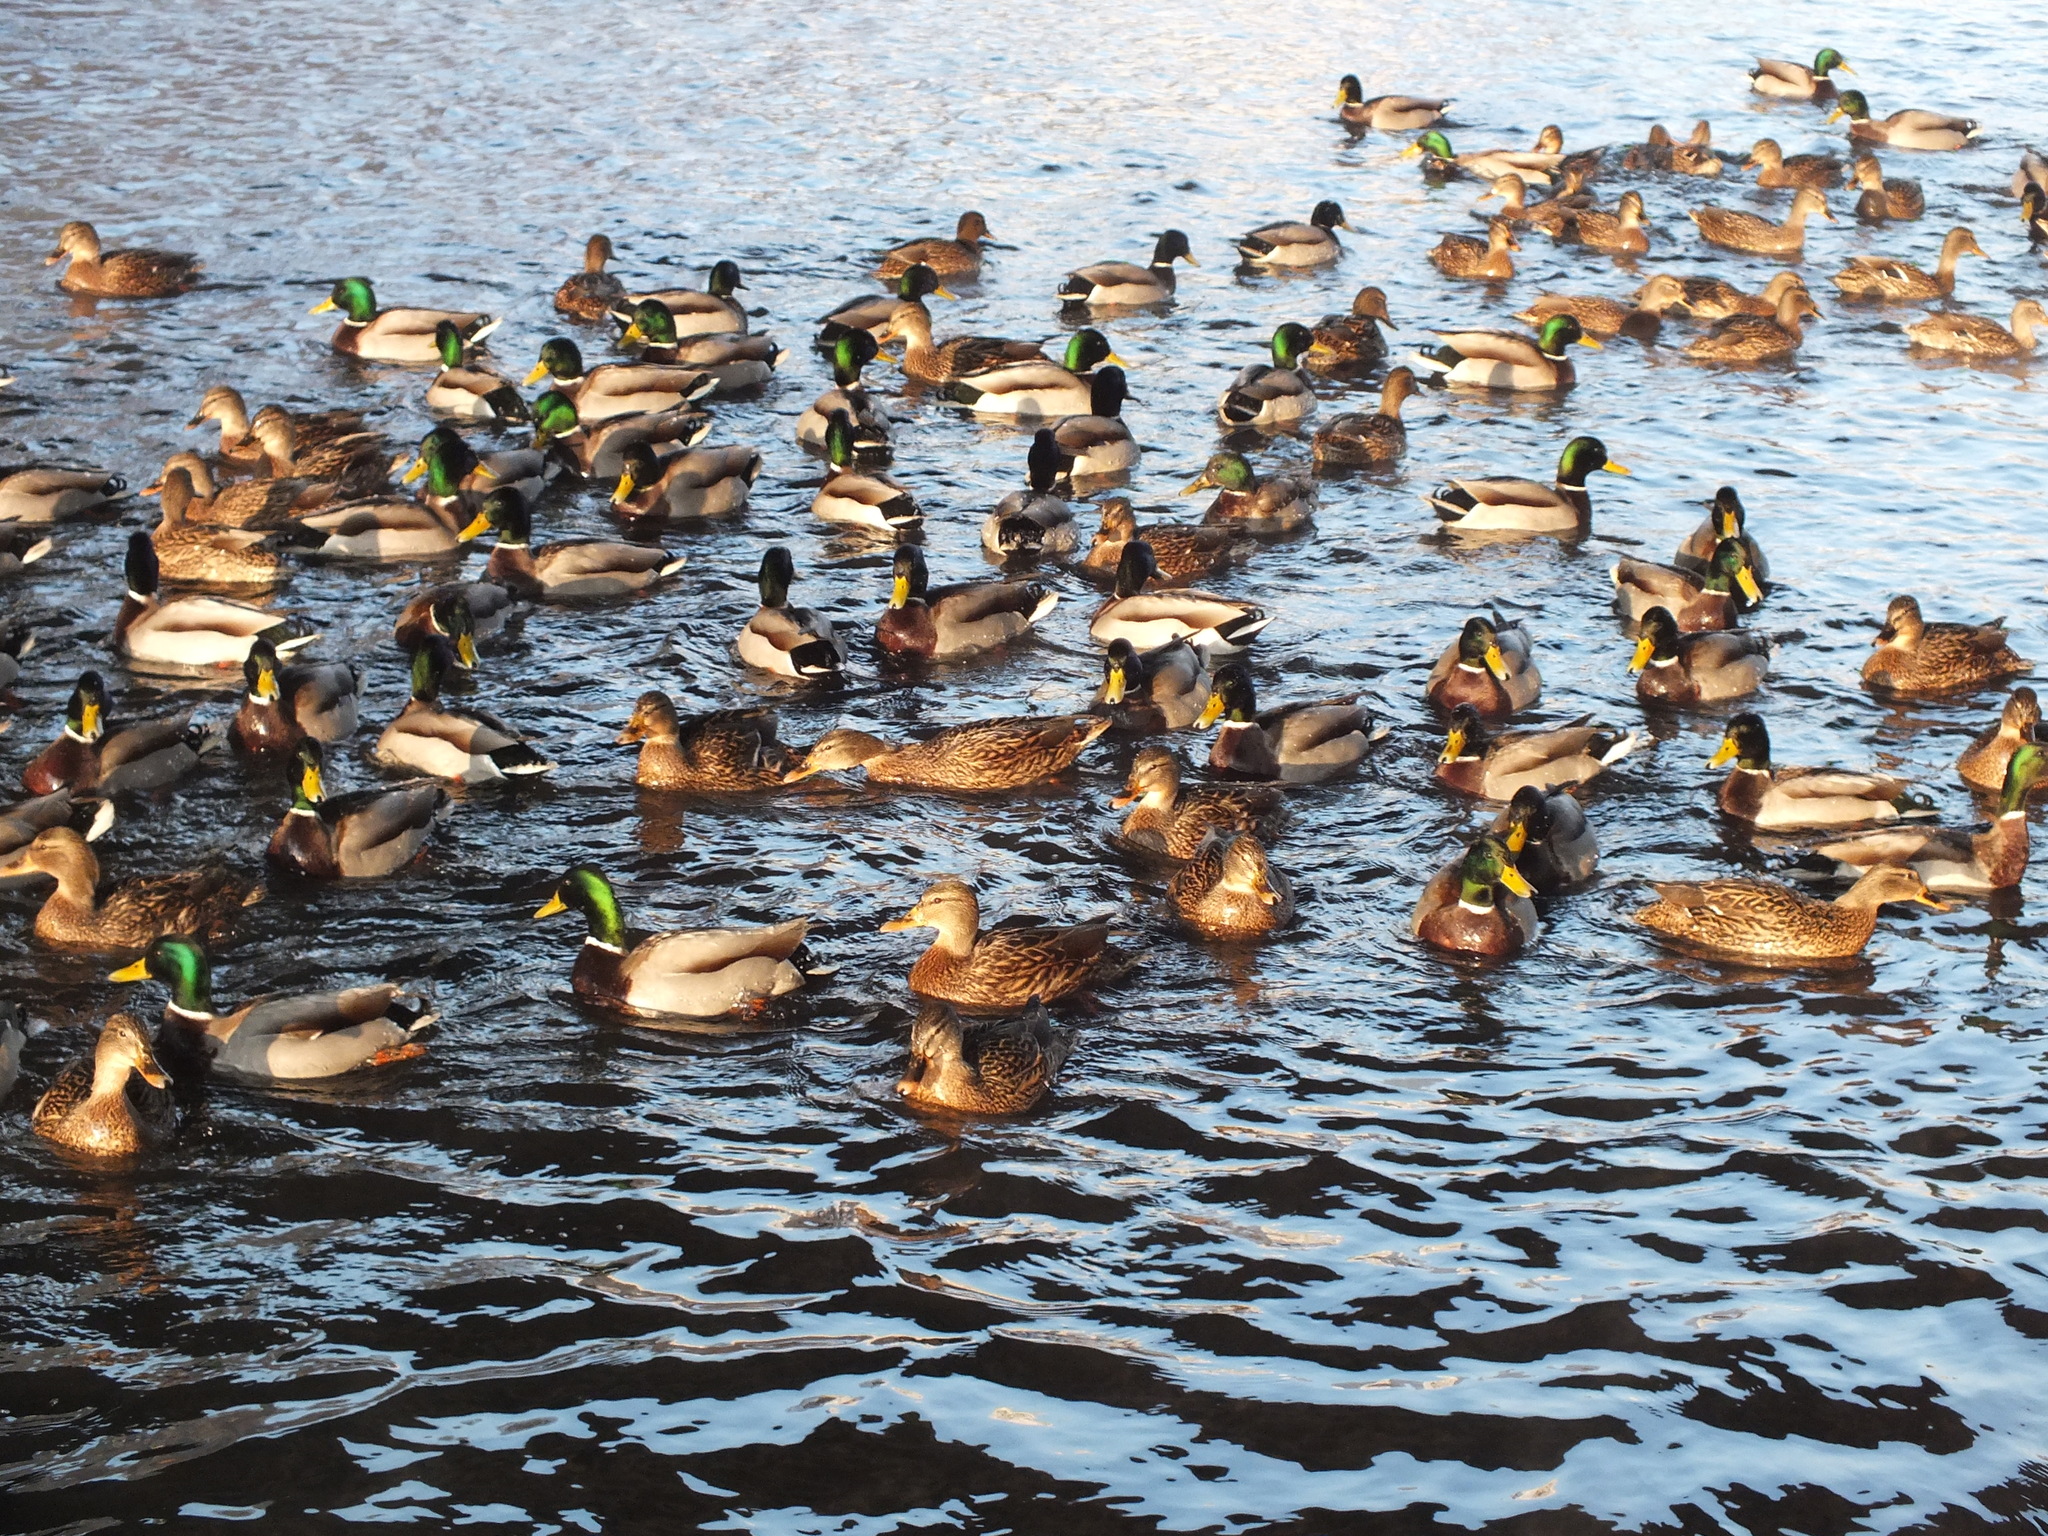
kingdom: Animalia
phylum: Chordata
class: Aves
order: Anseriformes
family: Anatidae
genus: Anas
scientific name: Anas platyrhynchos
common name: Mallard
